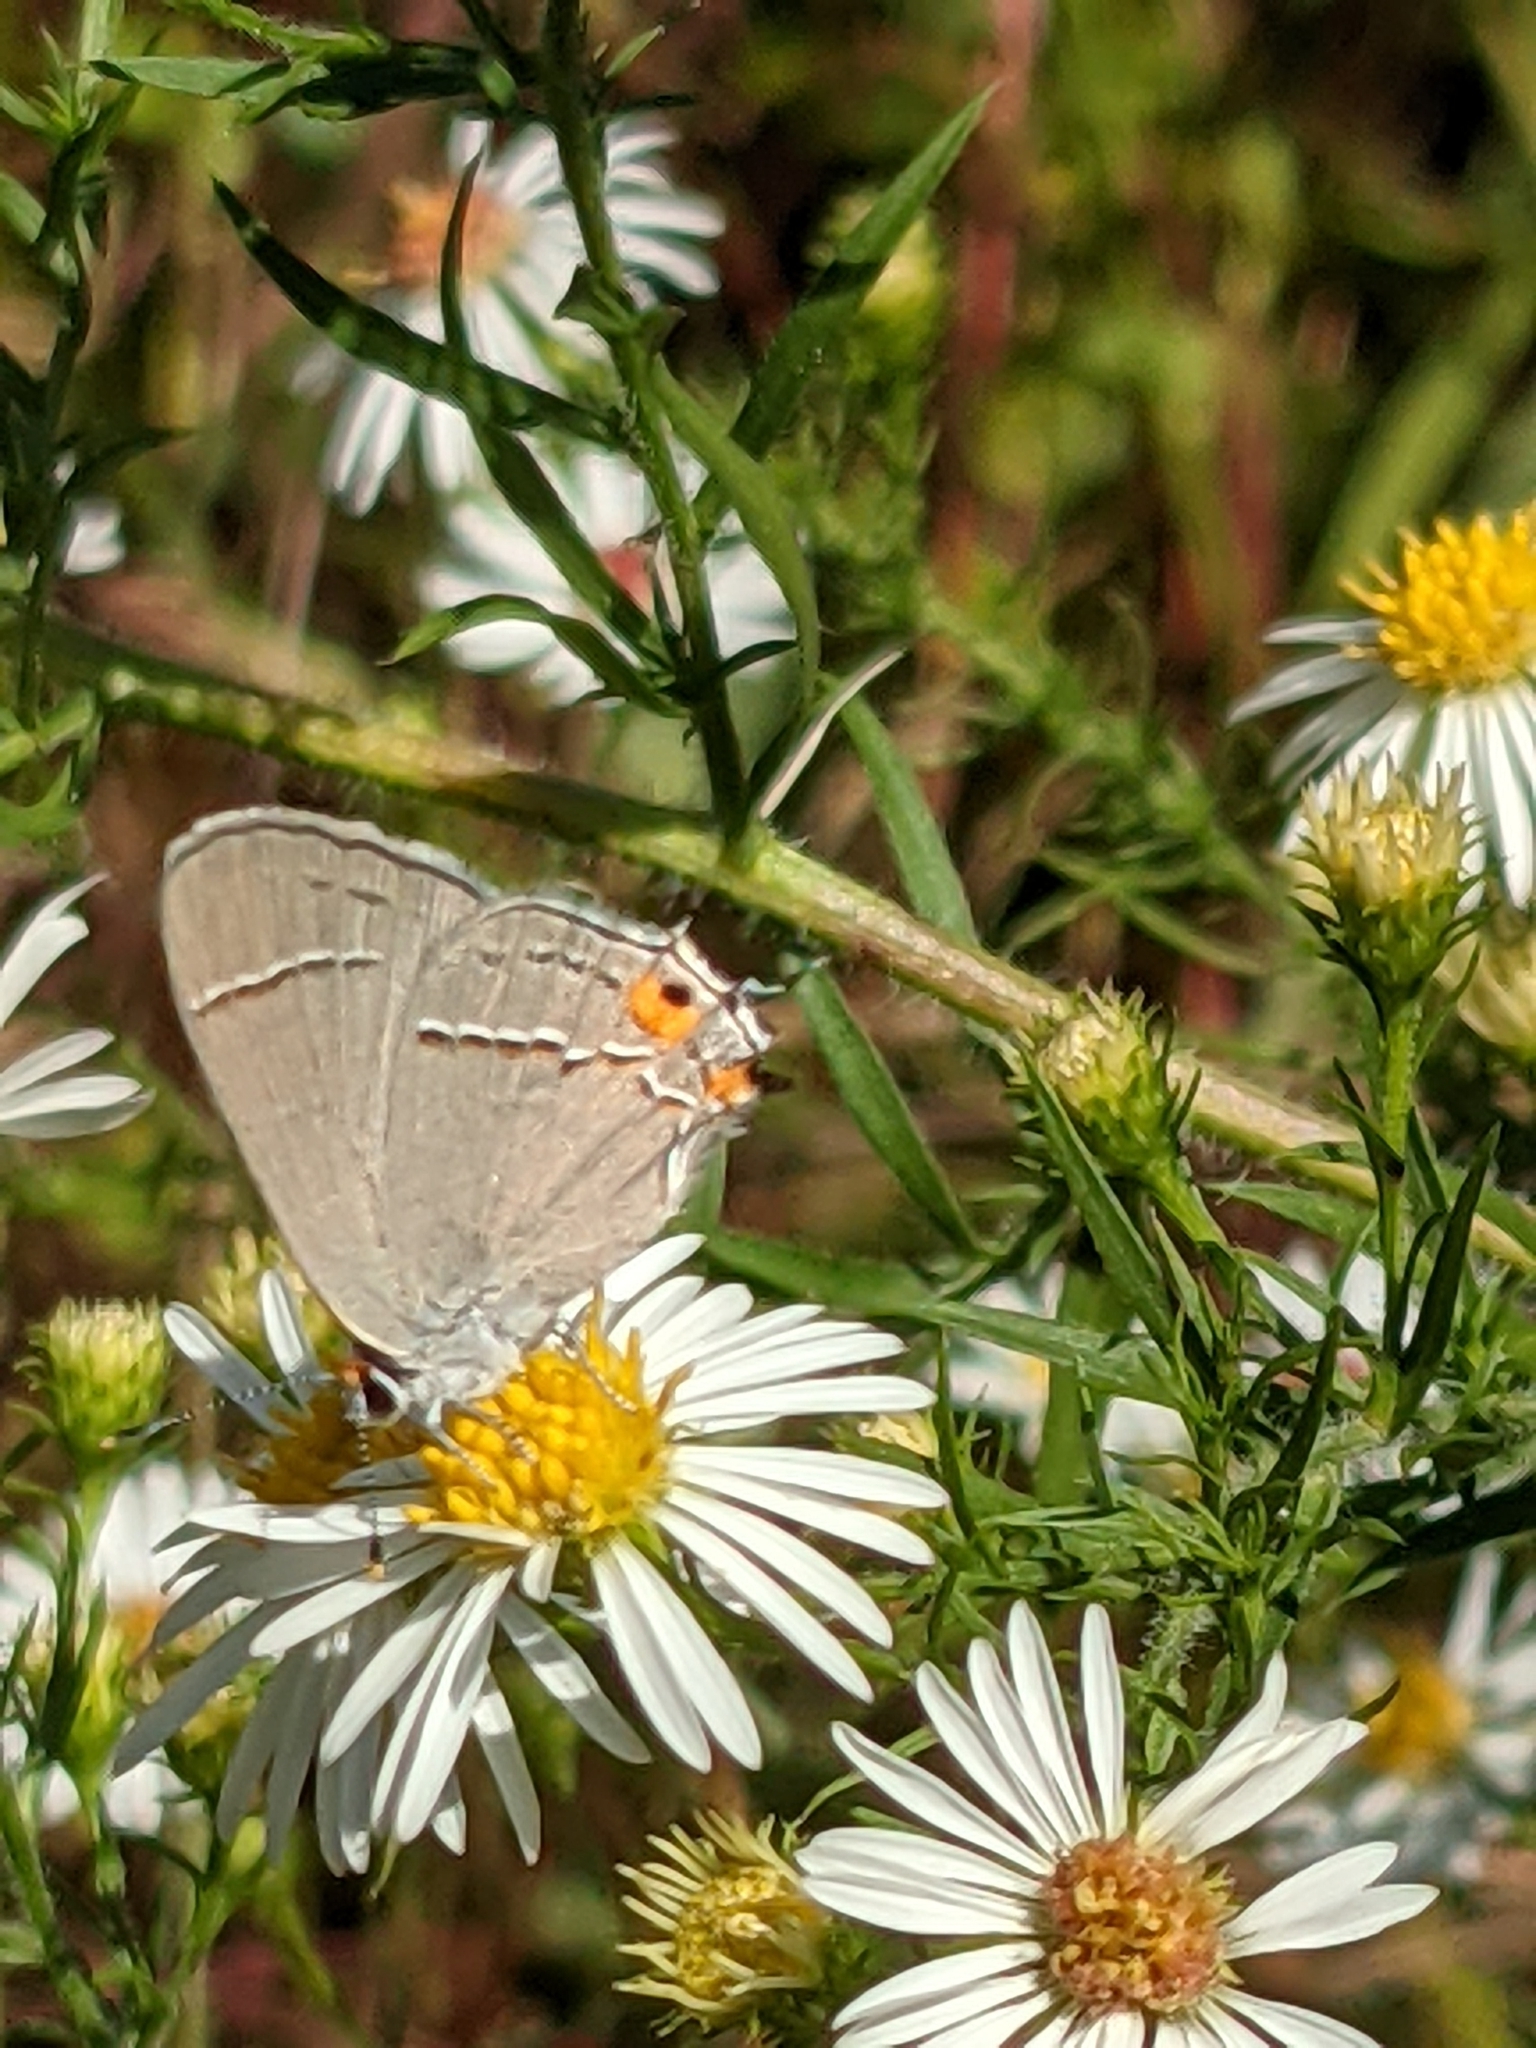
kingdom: Animalia
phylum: Arthropoda
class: Insecta
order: Lepidoptera
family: Lycaenidae
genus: Strymon
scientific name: Strymon melinus
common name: Gray hairstreak
